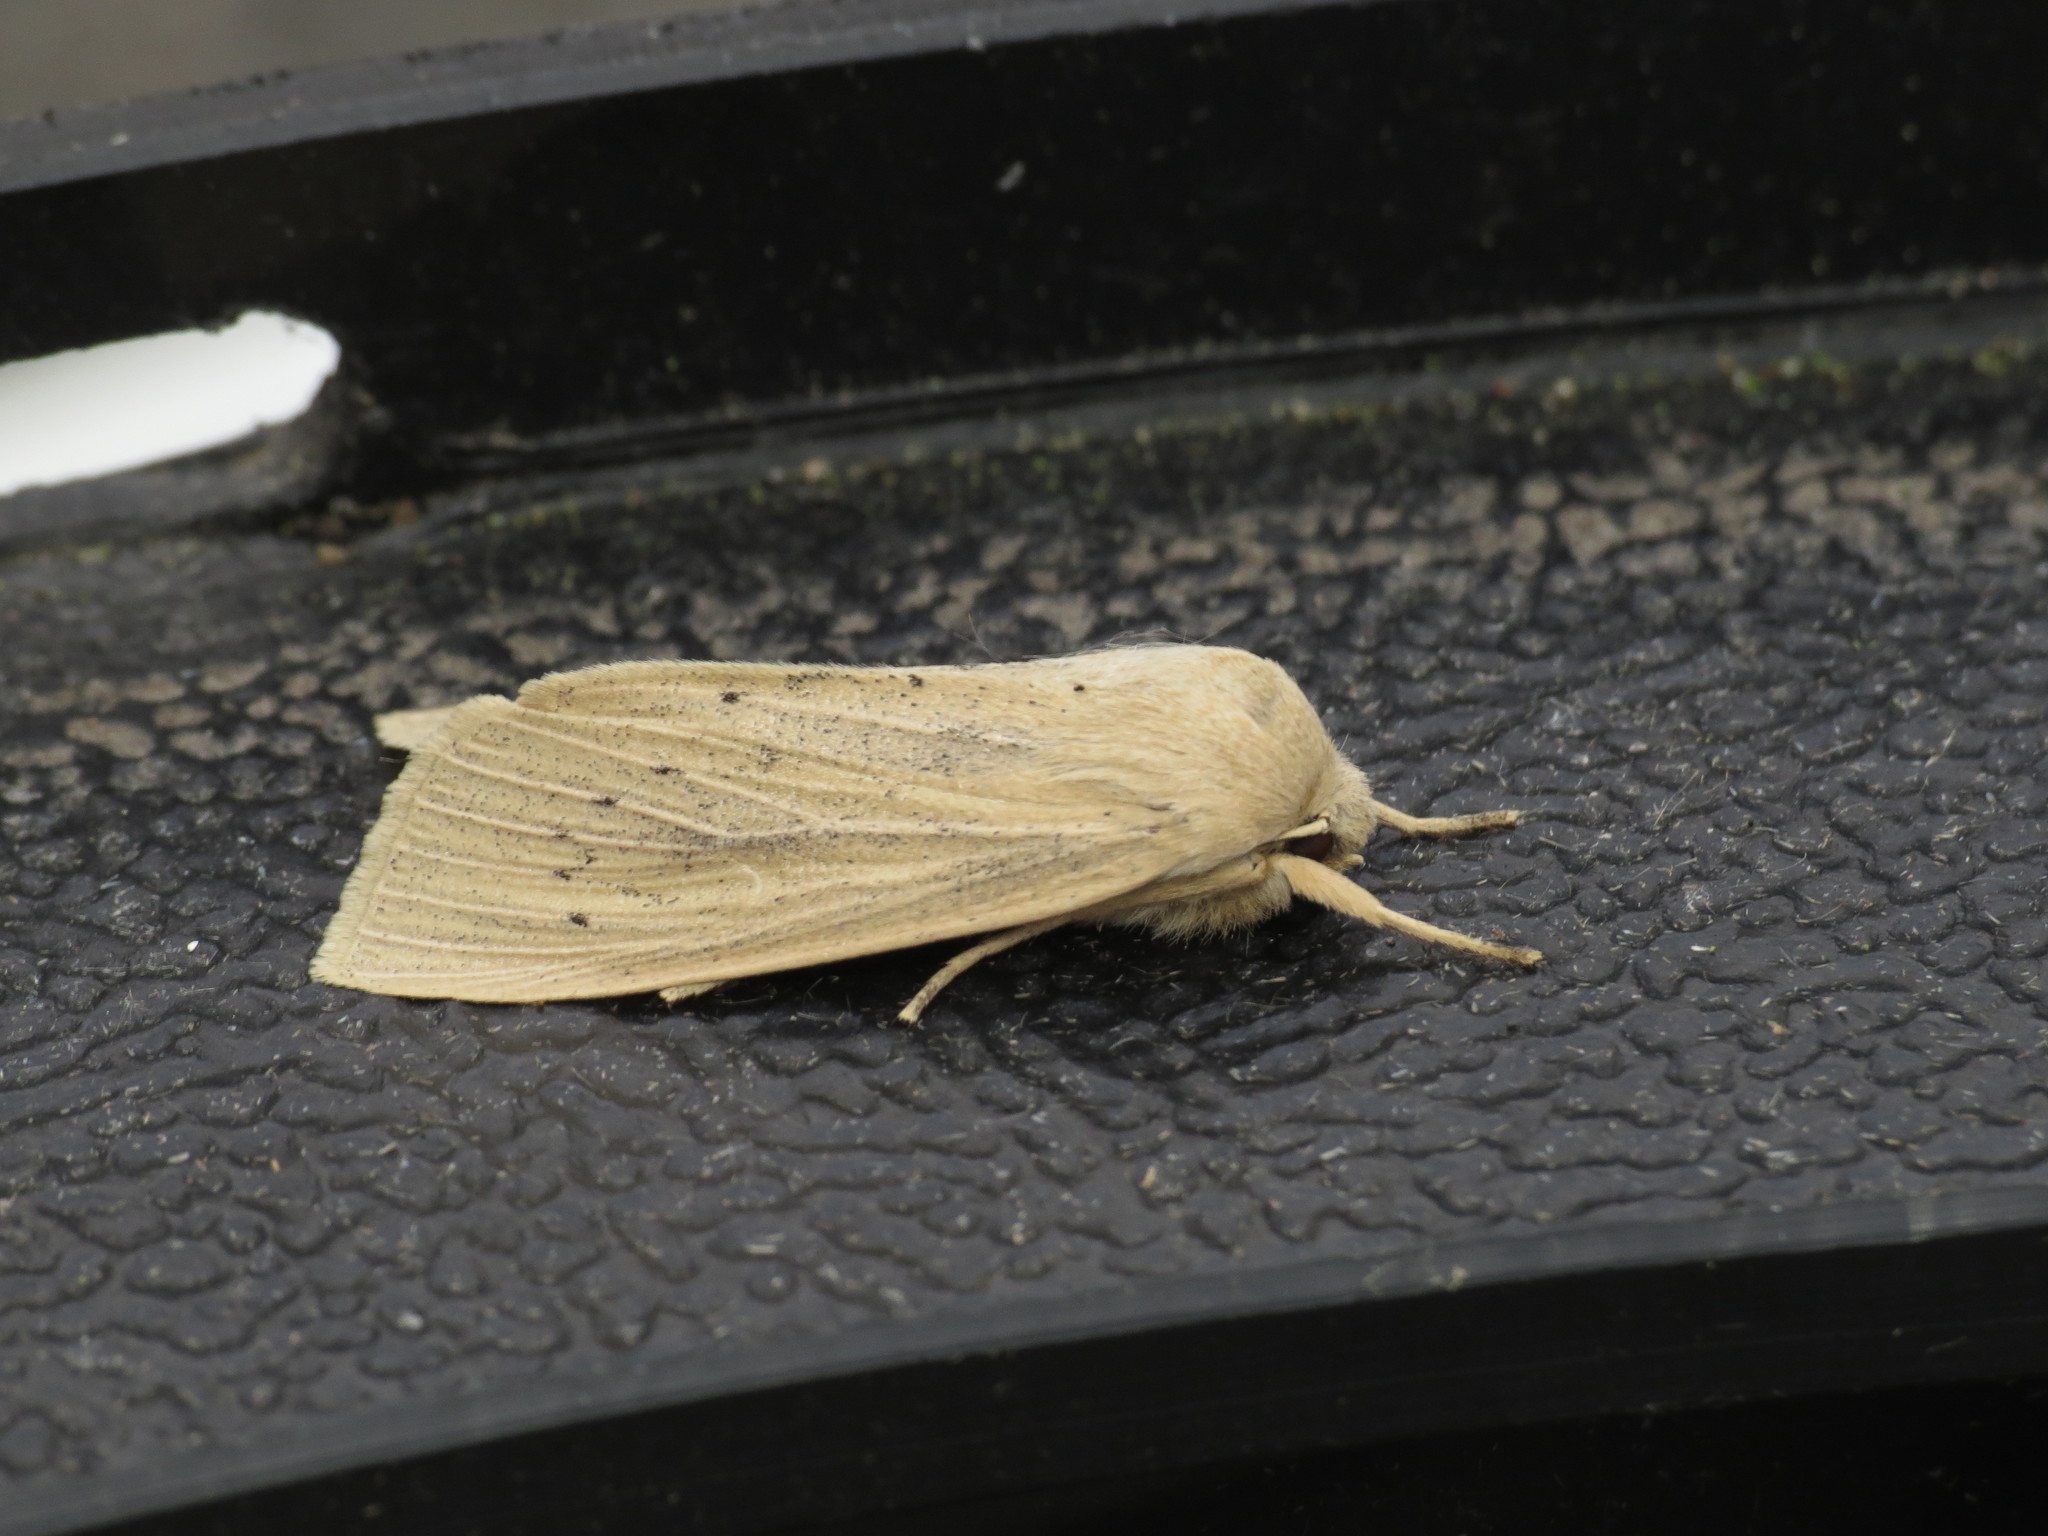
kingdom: Animalia
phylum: Arthropoda
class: Insecta
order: Lepidoptera
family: Noctuidae
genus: Rhizedra
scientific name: Rhizedra lutosa
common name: Large wainscot
